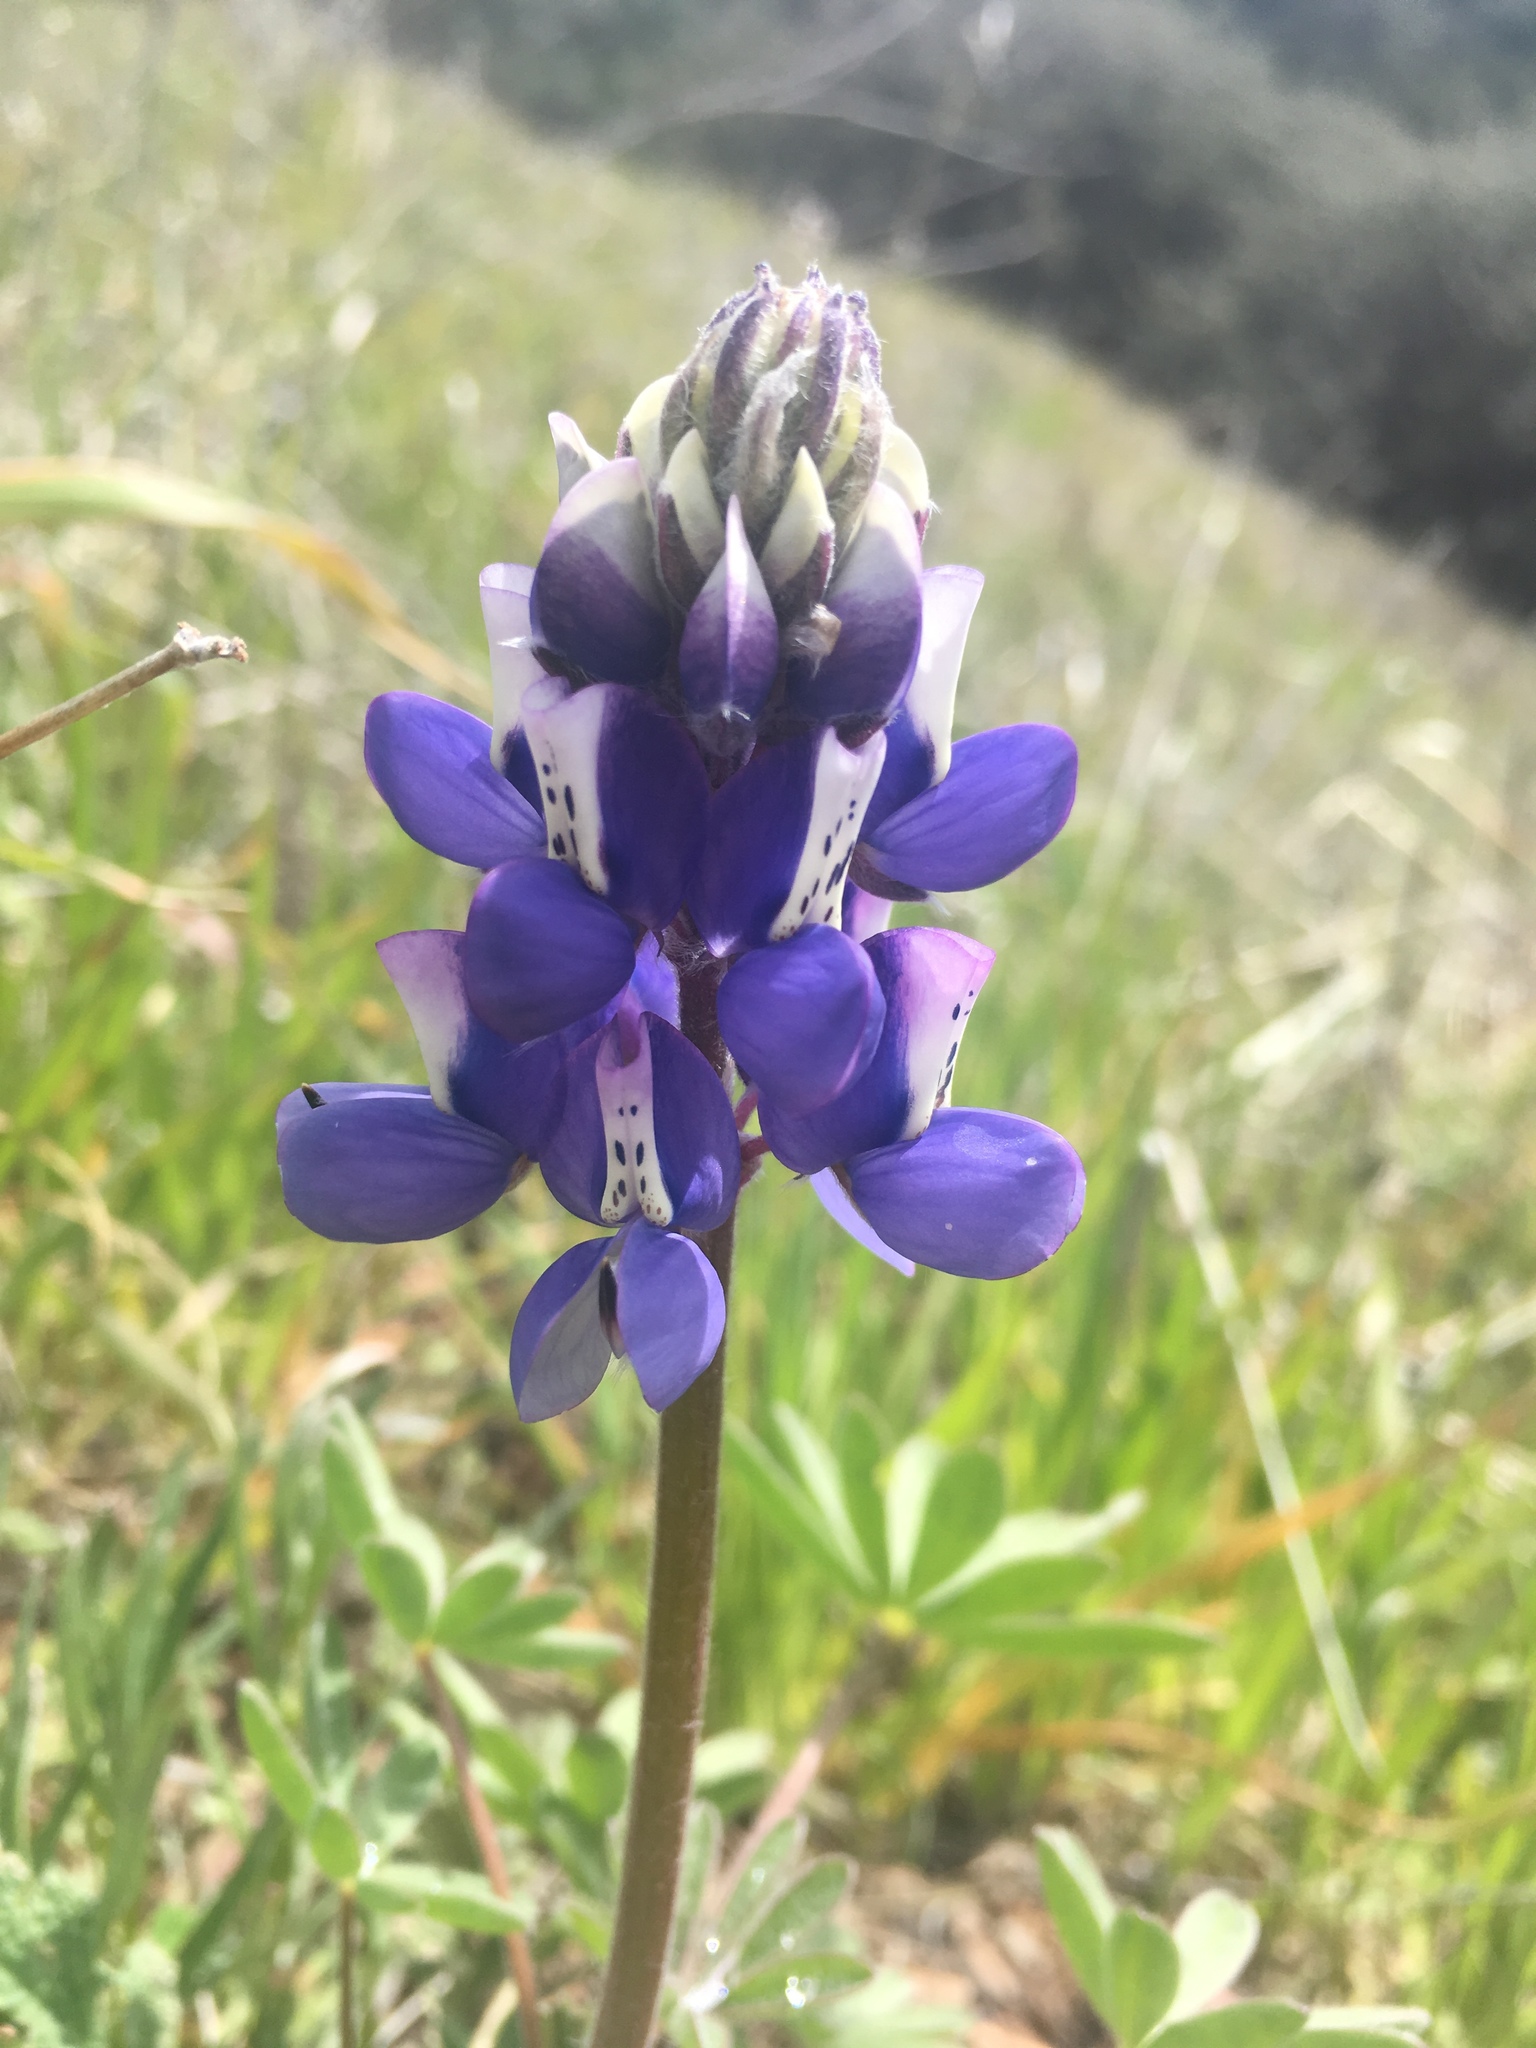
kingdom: Plantae
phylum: Tracheophyta
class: Magnoliopsida
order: Fabales
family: Fabaceae
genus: Lupinus
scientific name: Lupinus nanus
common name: Orean blue lupin
